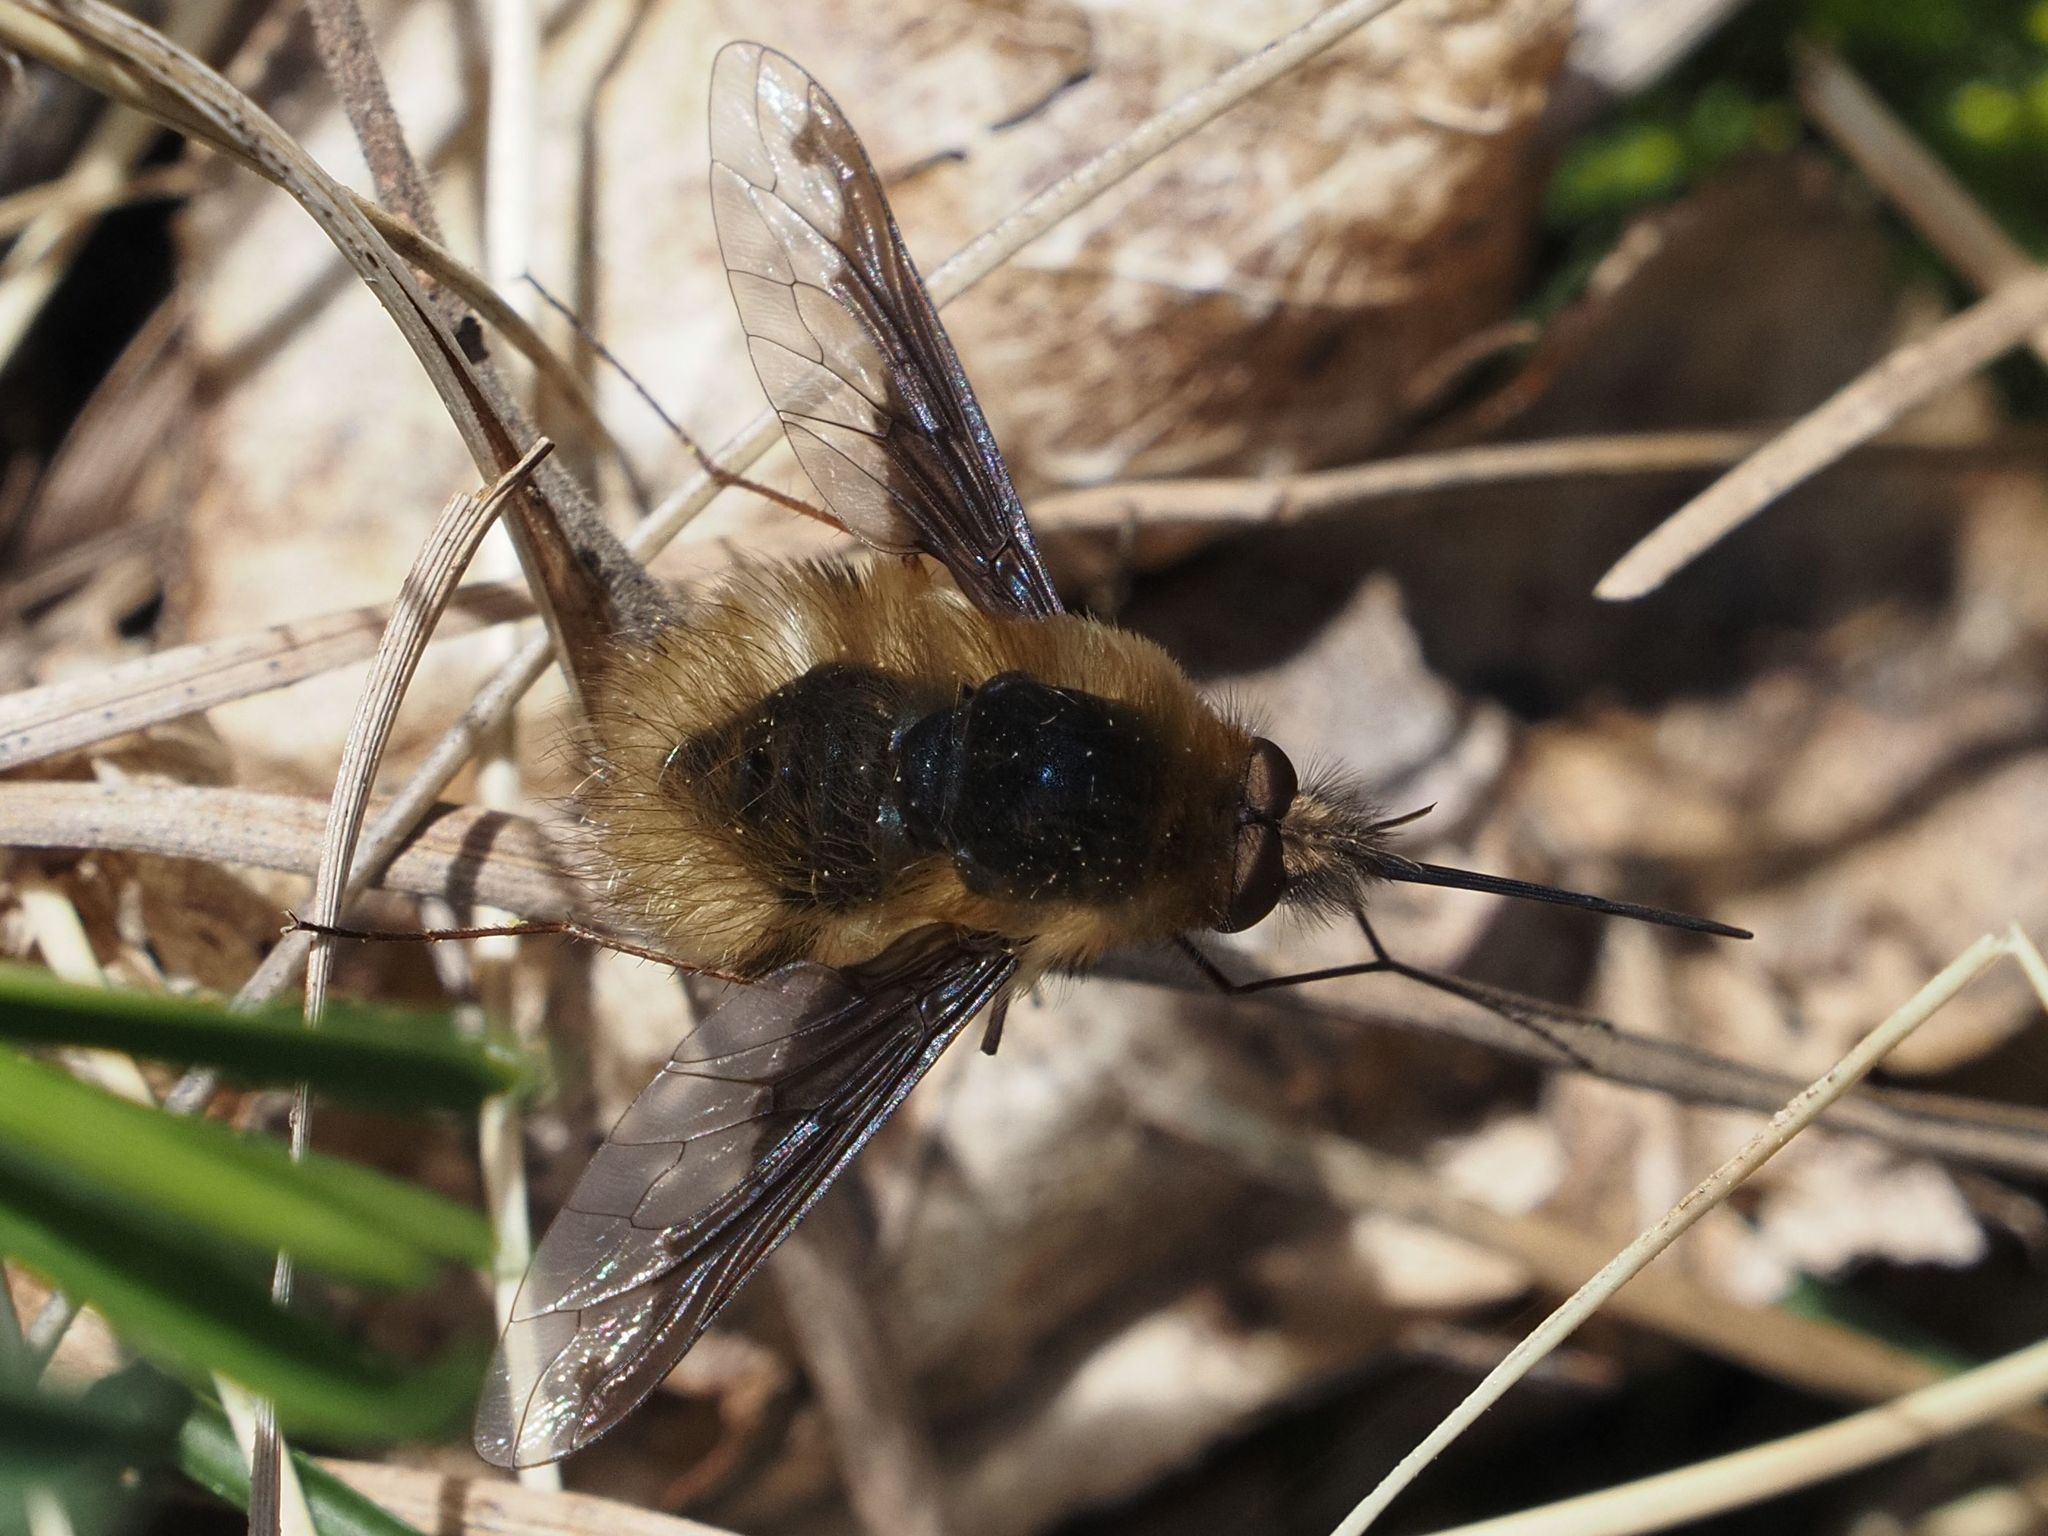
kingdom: Animalia
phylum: Arthropoda
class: Insecta
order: Diptera
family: Bombyliidae
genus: Bombylius
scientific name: Bombylius major
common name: Bee fly
